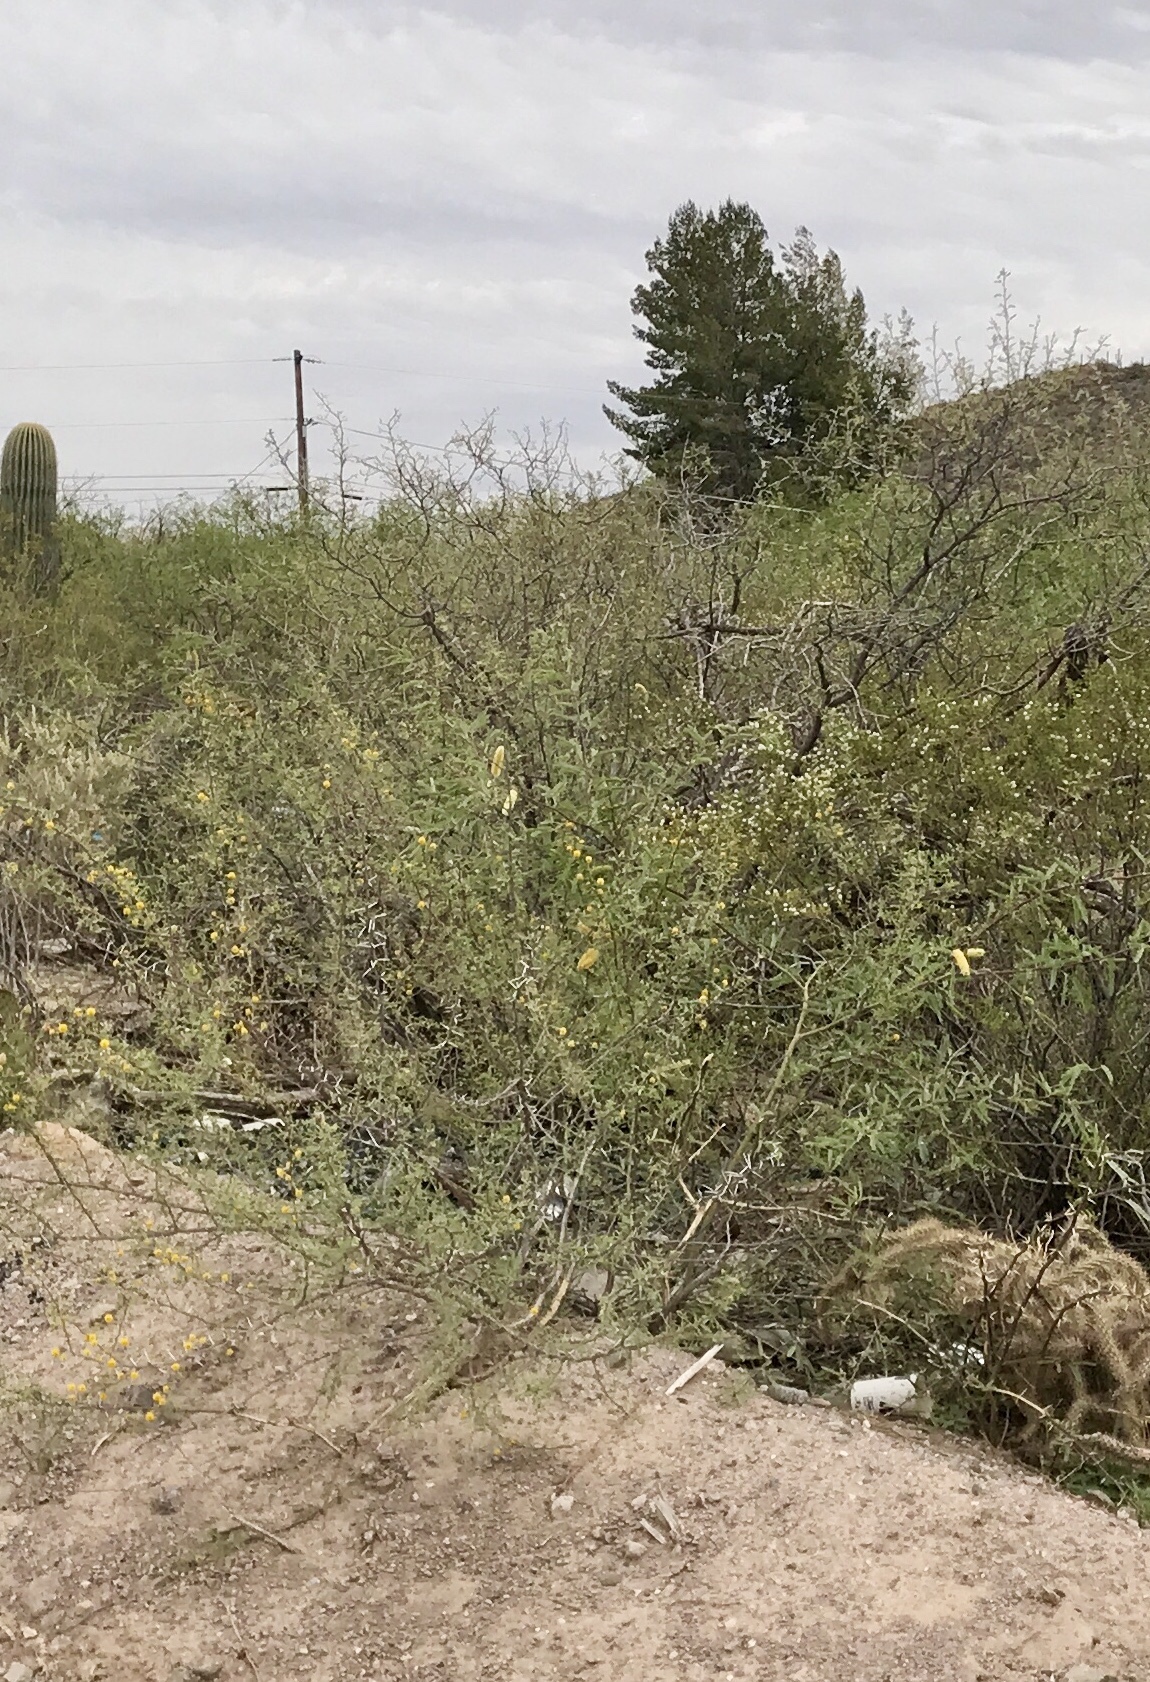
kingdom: Plantae
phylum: Tracheophyta
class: Magnoliopsida
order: Fabales
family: Fabaceae
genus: Vachellia
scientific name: Vachellia constricta
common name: Mescat acacia
